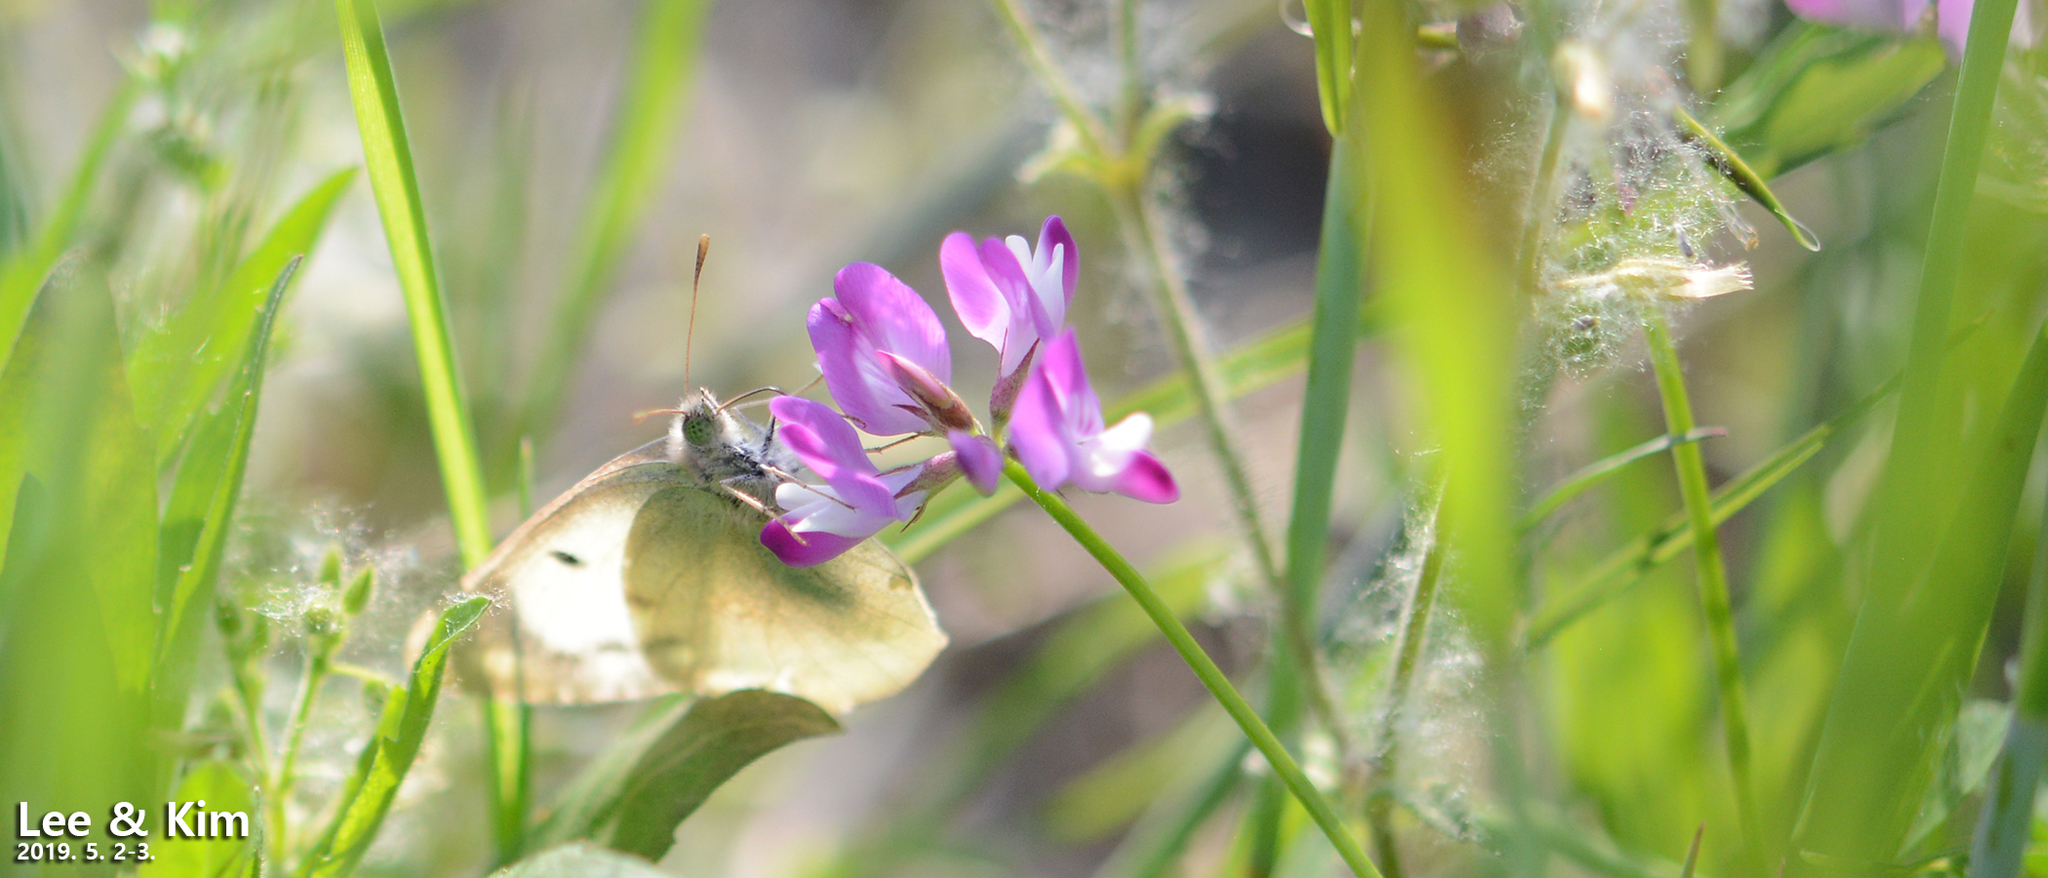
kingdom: Animalia
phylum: Arthropoda
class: Insecta
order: Lepidoptera
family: Pieridae
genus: Colias
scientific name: Colias poliographus
